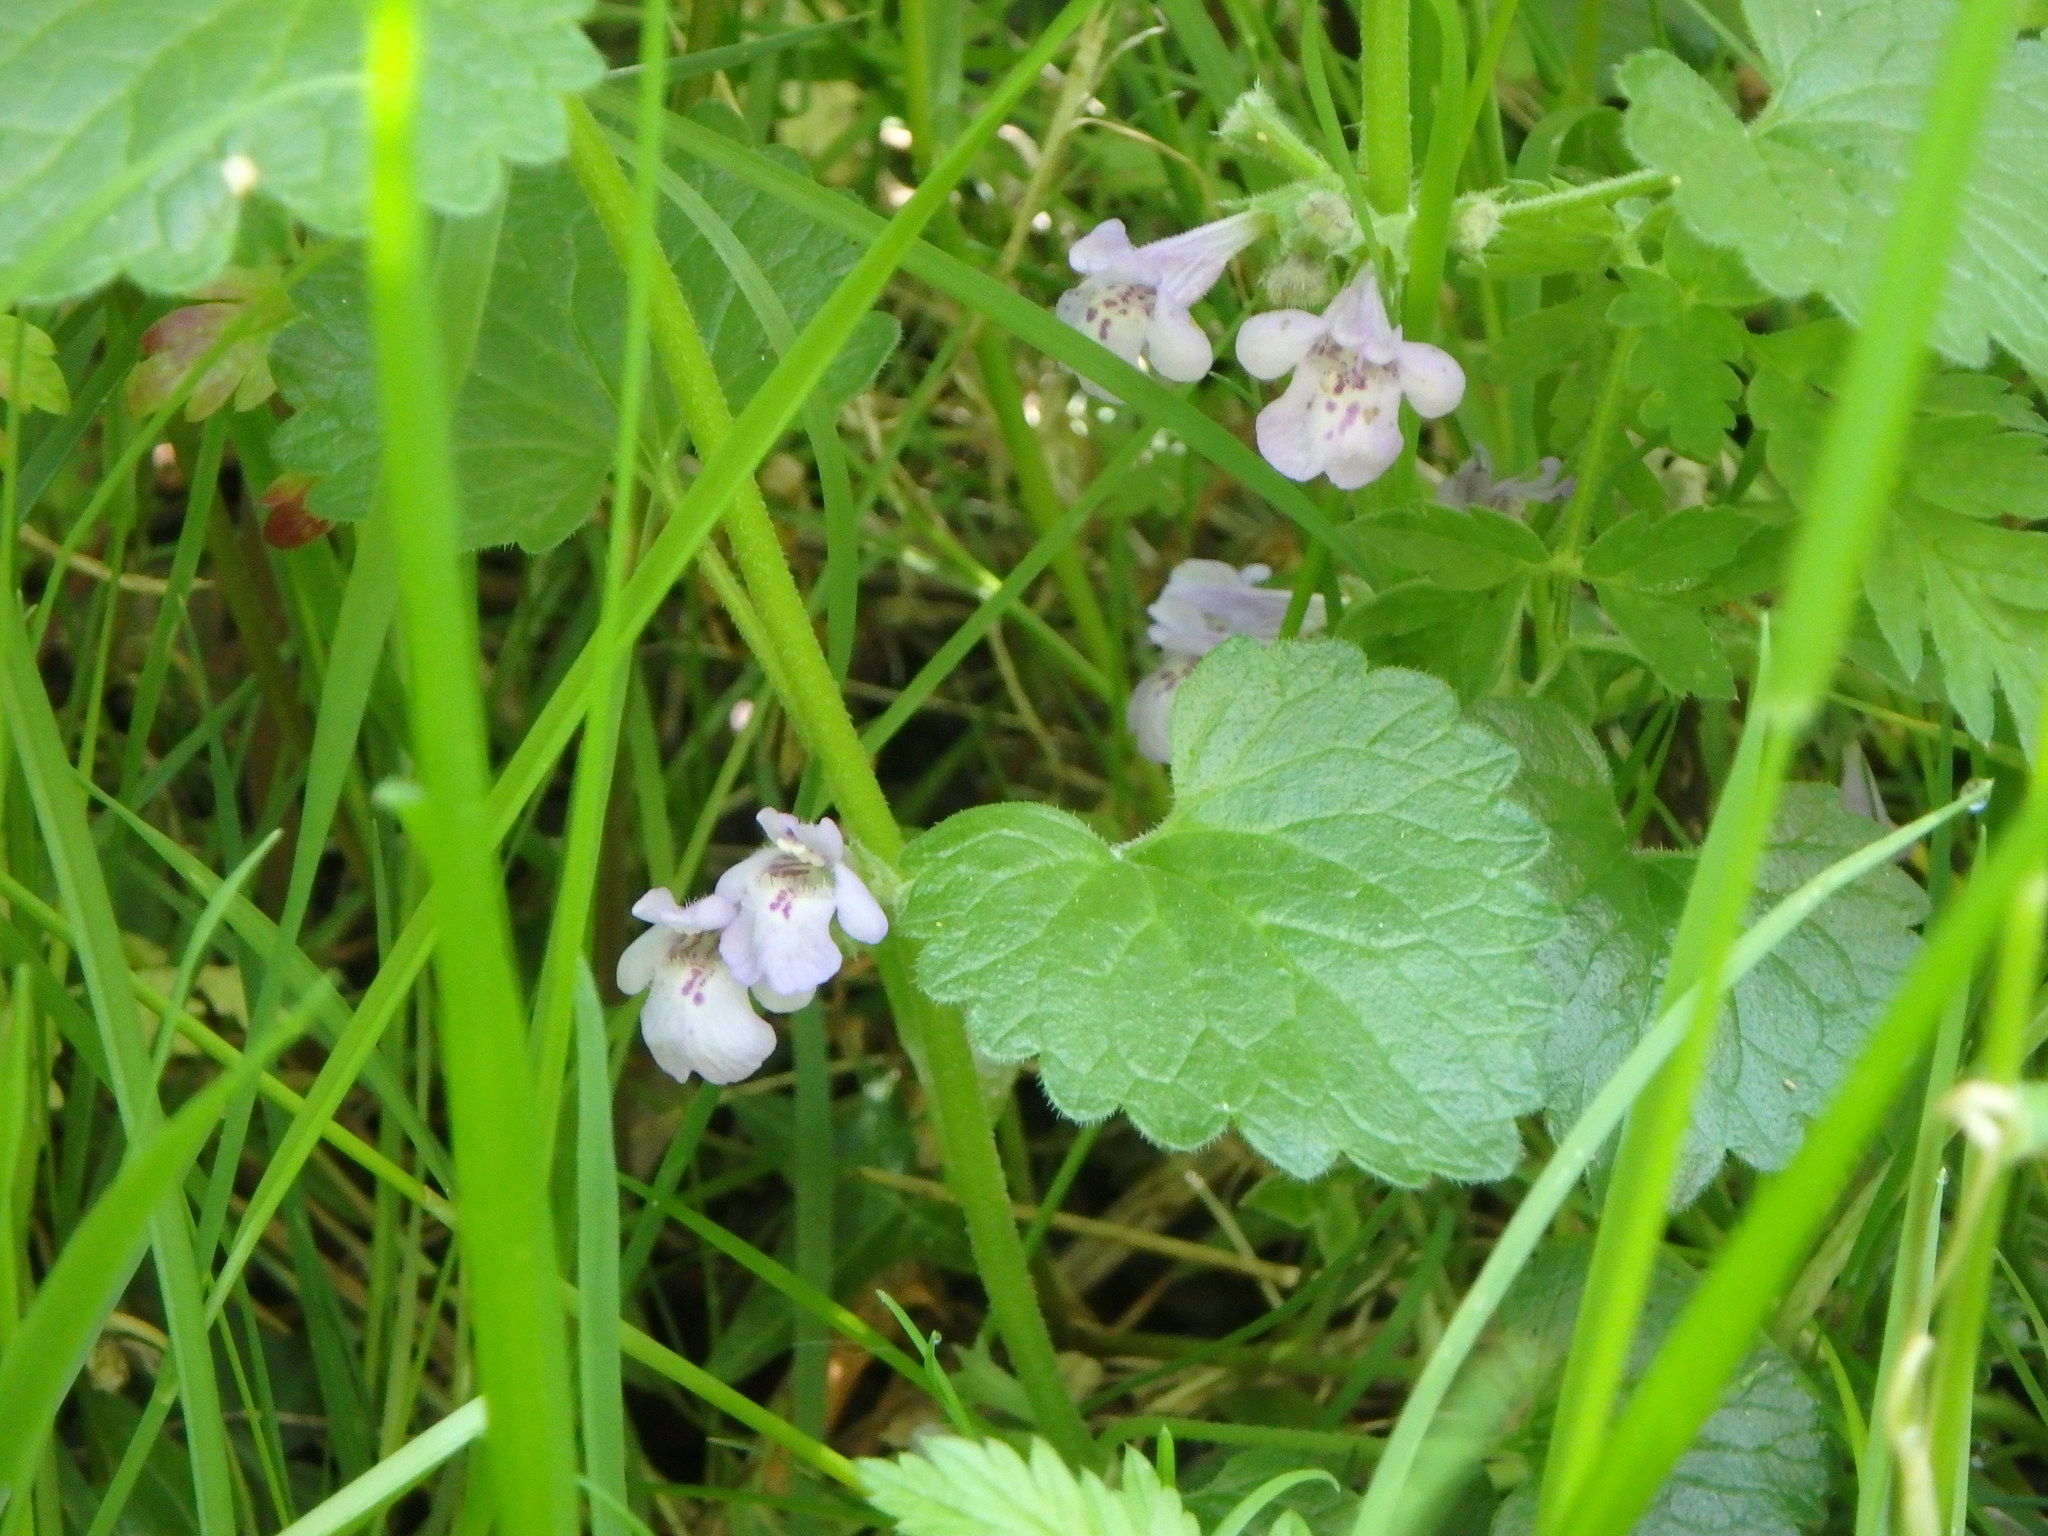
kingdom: Plantae
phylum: Tracheophyta
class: Magnoliopsida
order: Lamiales
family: Lamiaceae
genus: Glechoma
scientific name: Glechoma hederacea
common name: Ground ivy
